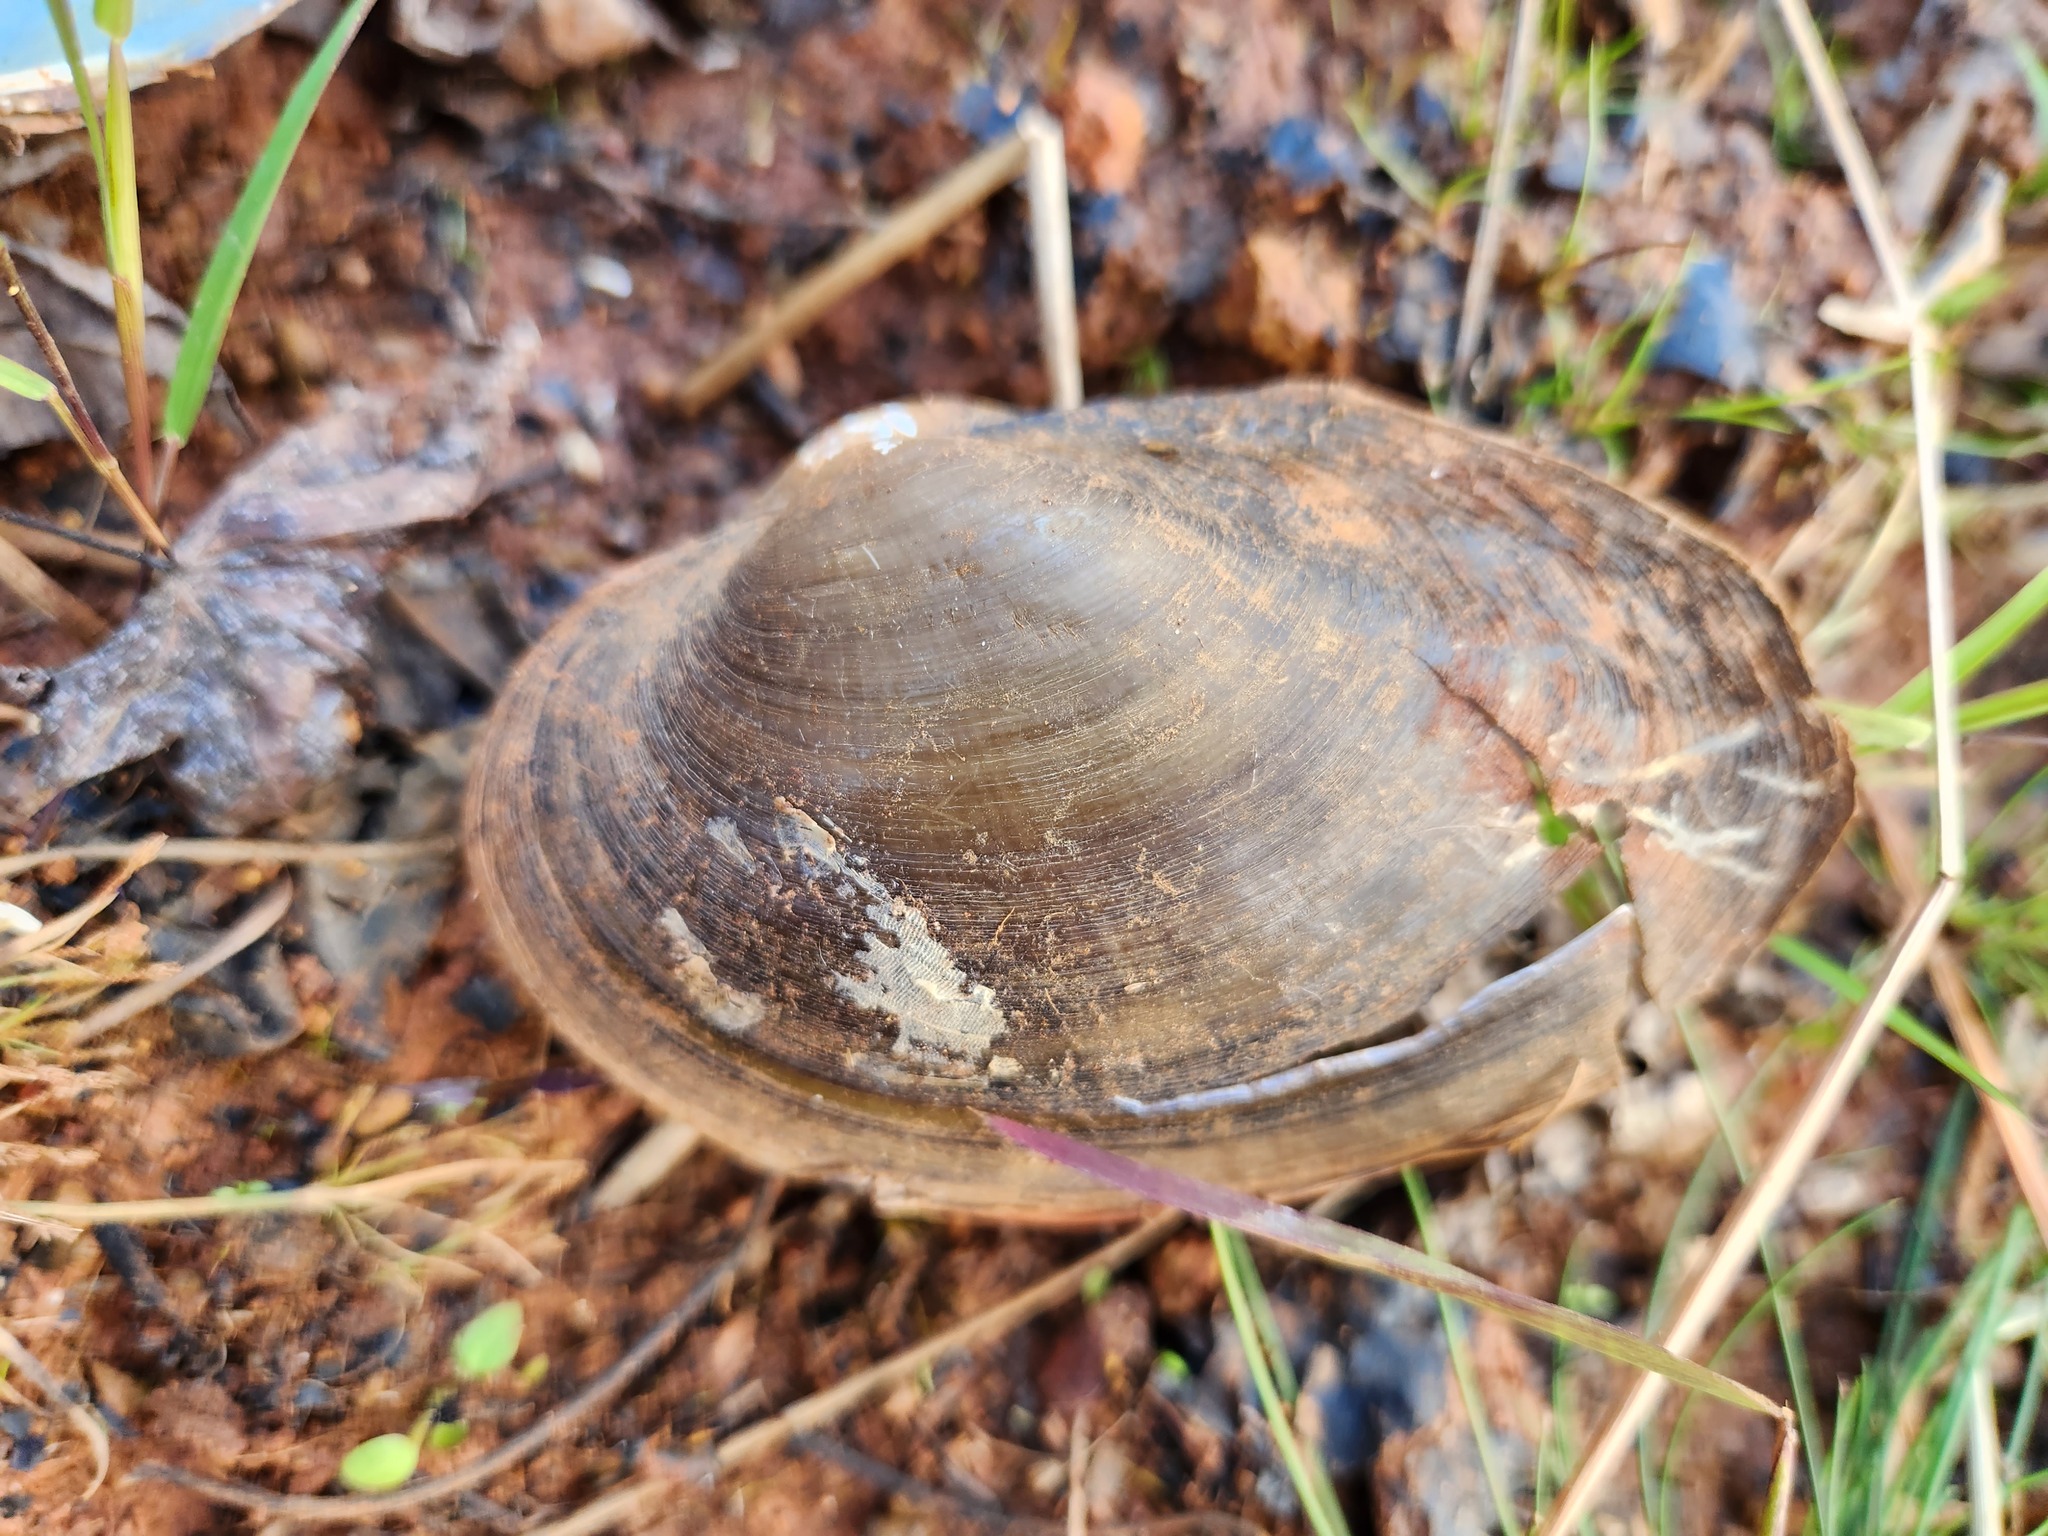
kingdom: Animalia
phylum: Mollusca
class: Bivalvia
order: Unionida
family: Unionidae
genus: Pyganodon
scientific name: Pyganodon grandis
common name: Giant floater
